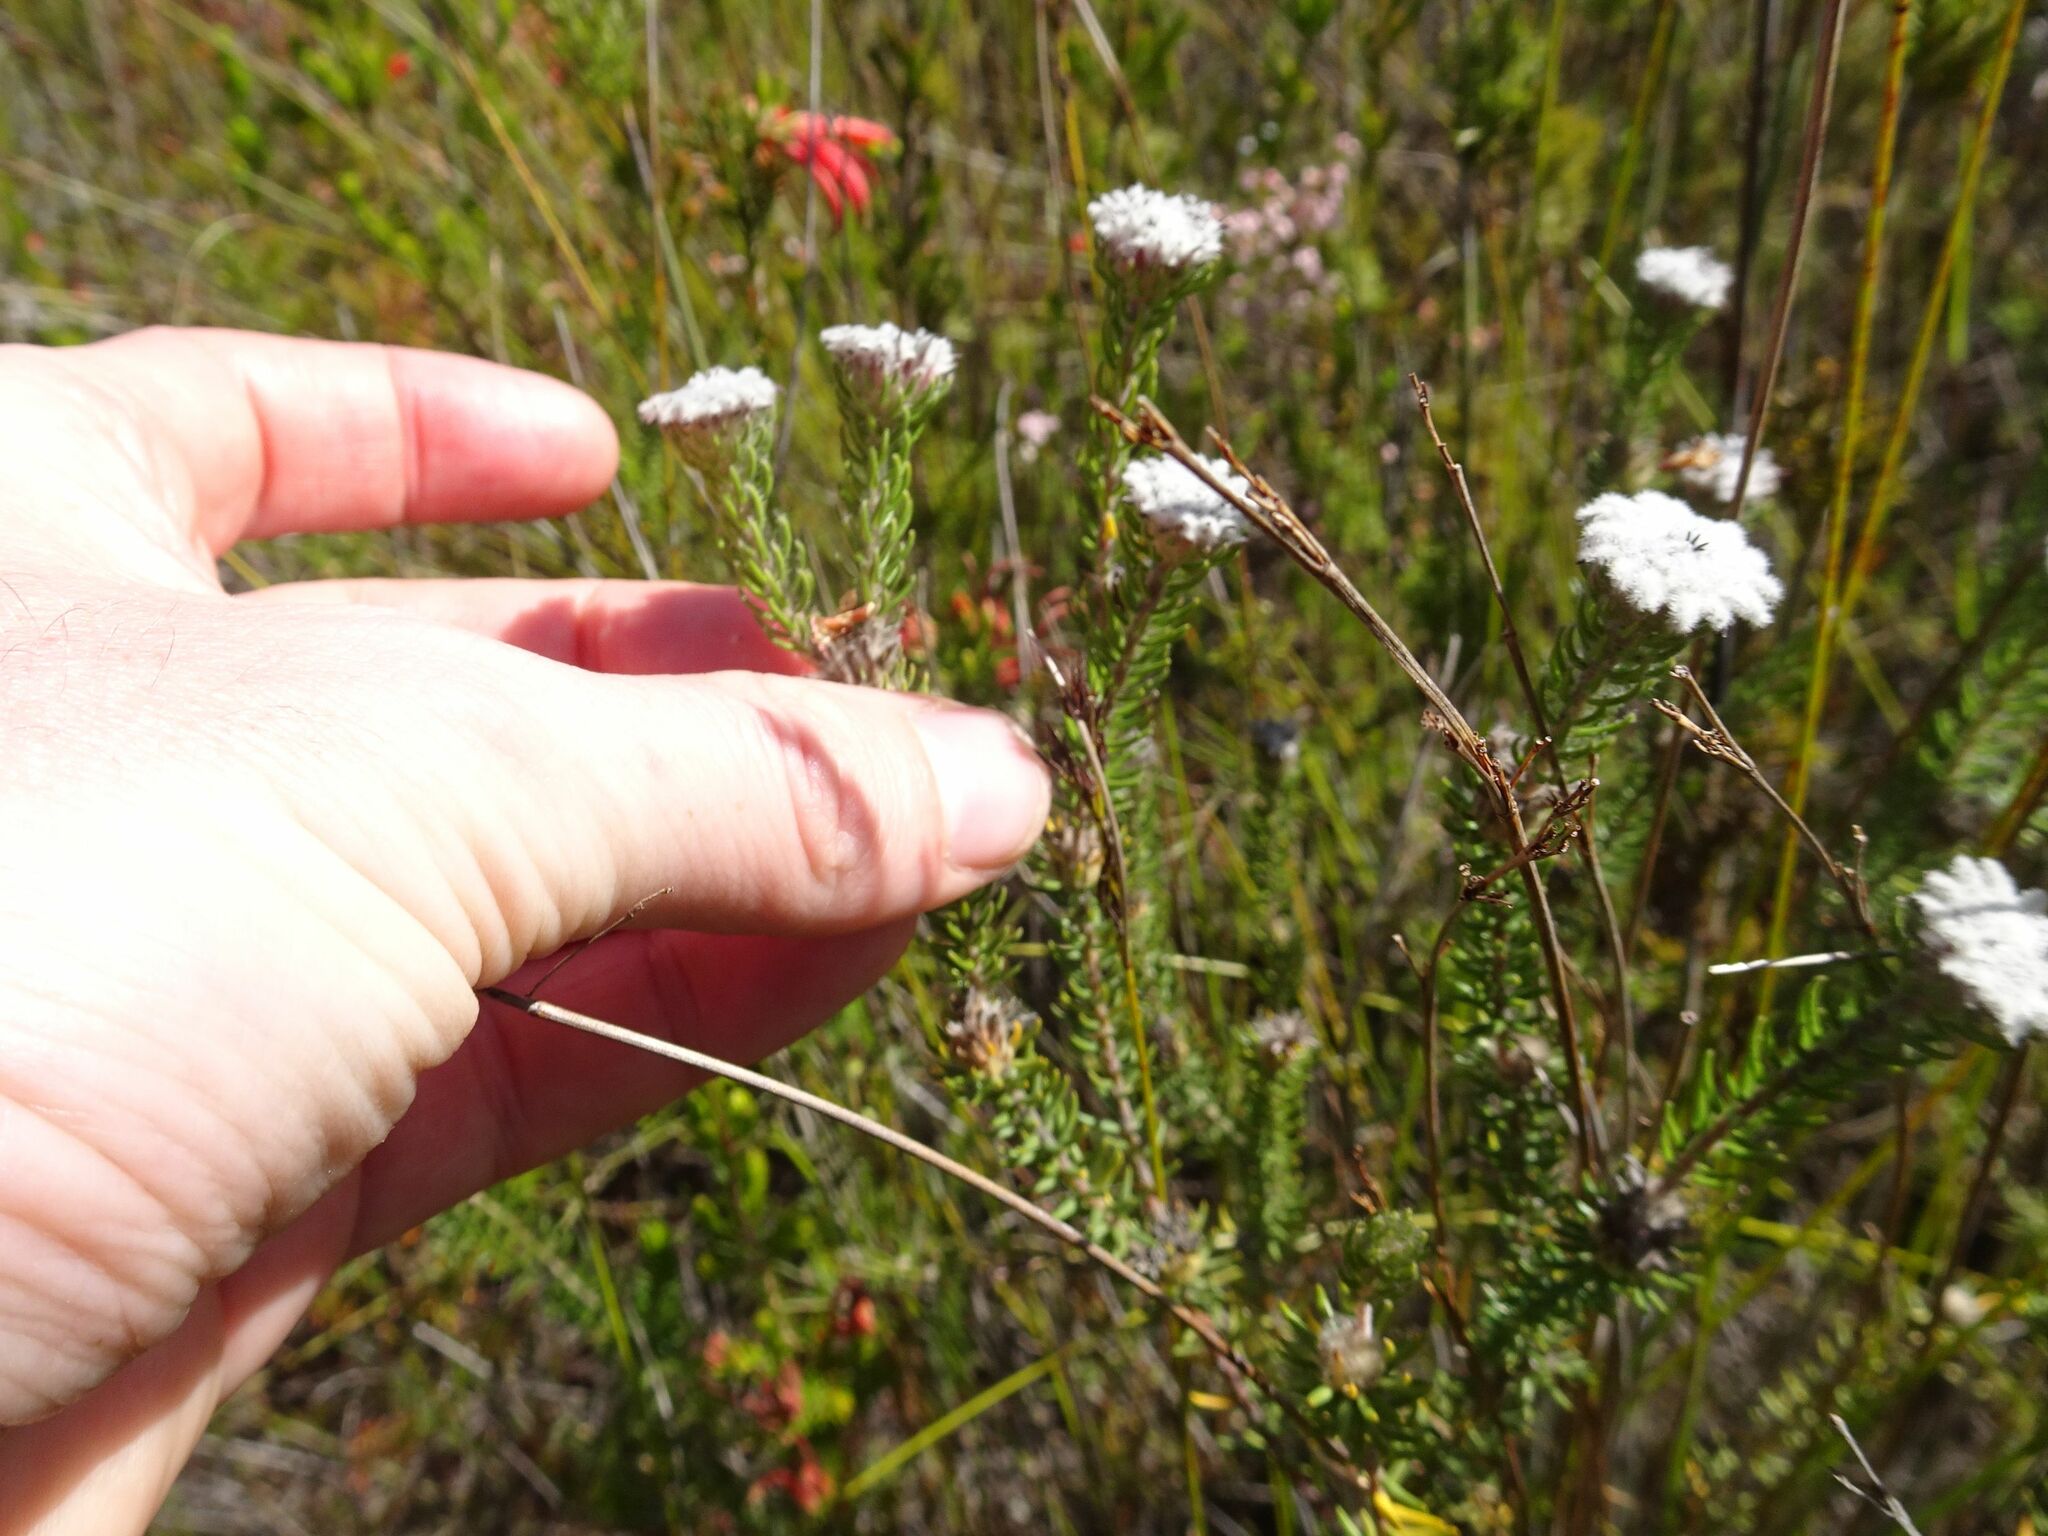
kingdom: Plantae
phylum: Tracheophyta
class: Magnoliopsida
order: Rosales
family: Rhamnaceae
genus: Phylica
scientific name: Phylica curvifolia
